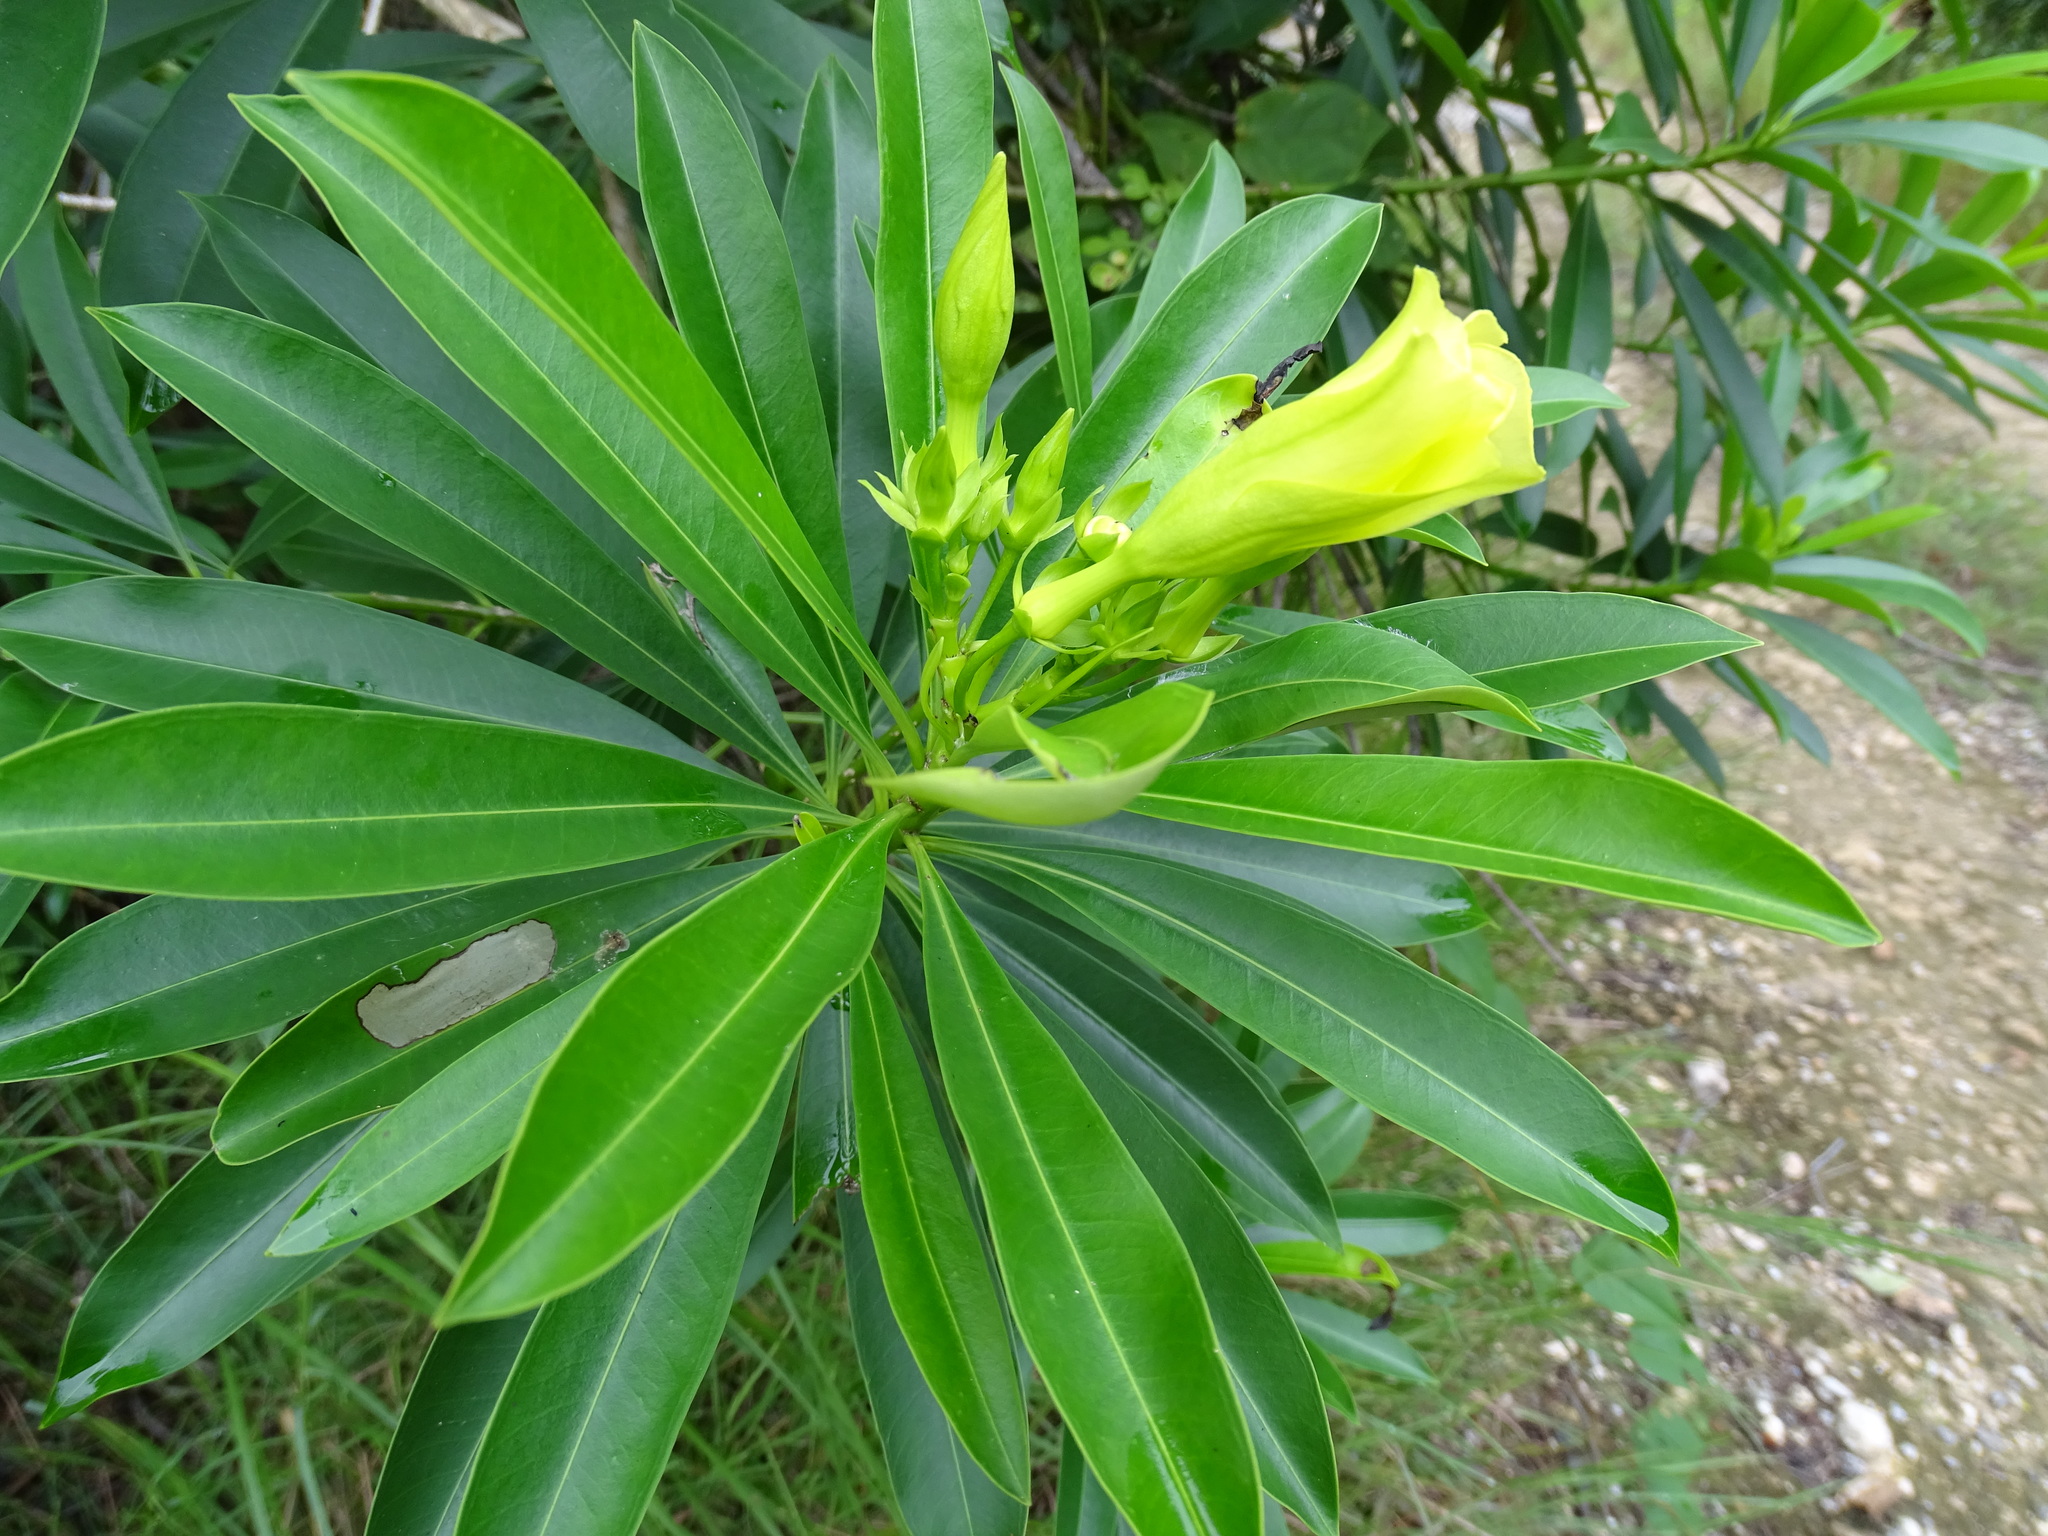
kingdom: Plantae
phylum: Tracheophyta
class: Magnoliopsida
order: Gentianales
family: Apocynaceae
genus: Cascabela
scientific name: Cascabela gaumeri
